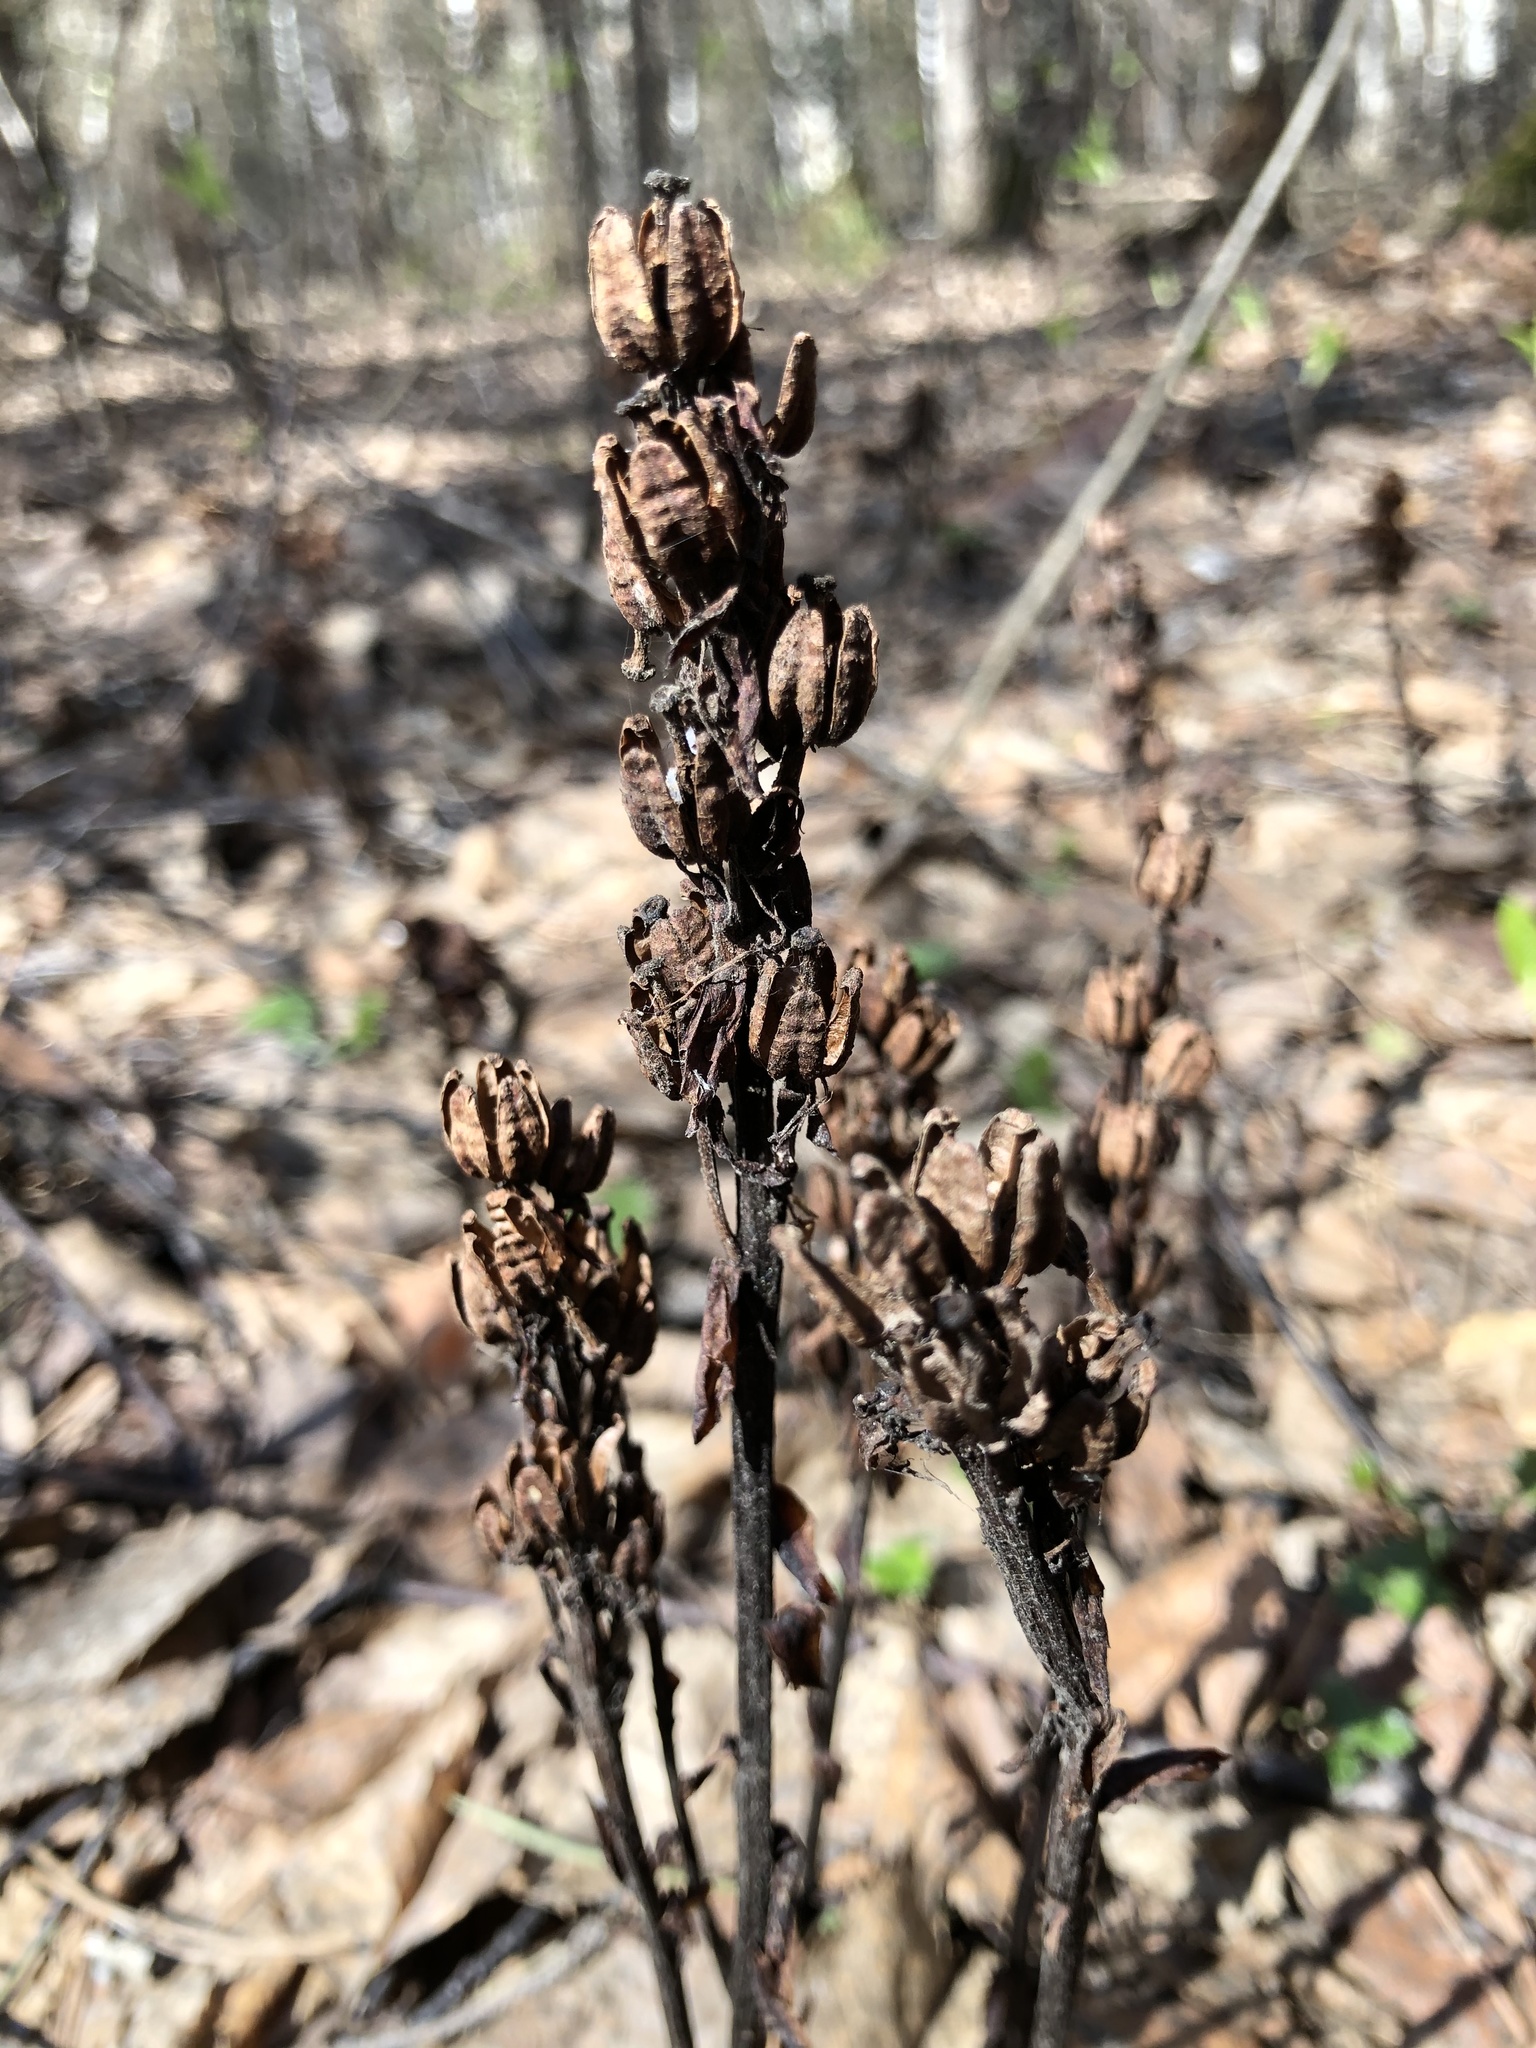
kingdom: Plantae
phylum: Tracheophyta
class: Magnoliopsida
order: Ericales
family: Ericaceae
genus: Hypopitys
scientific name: Hypopitys monotropa
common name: Yellow bird's-nest
